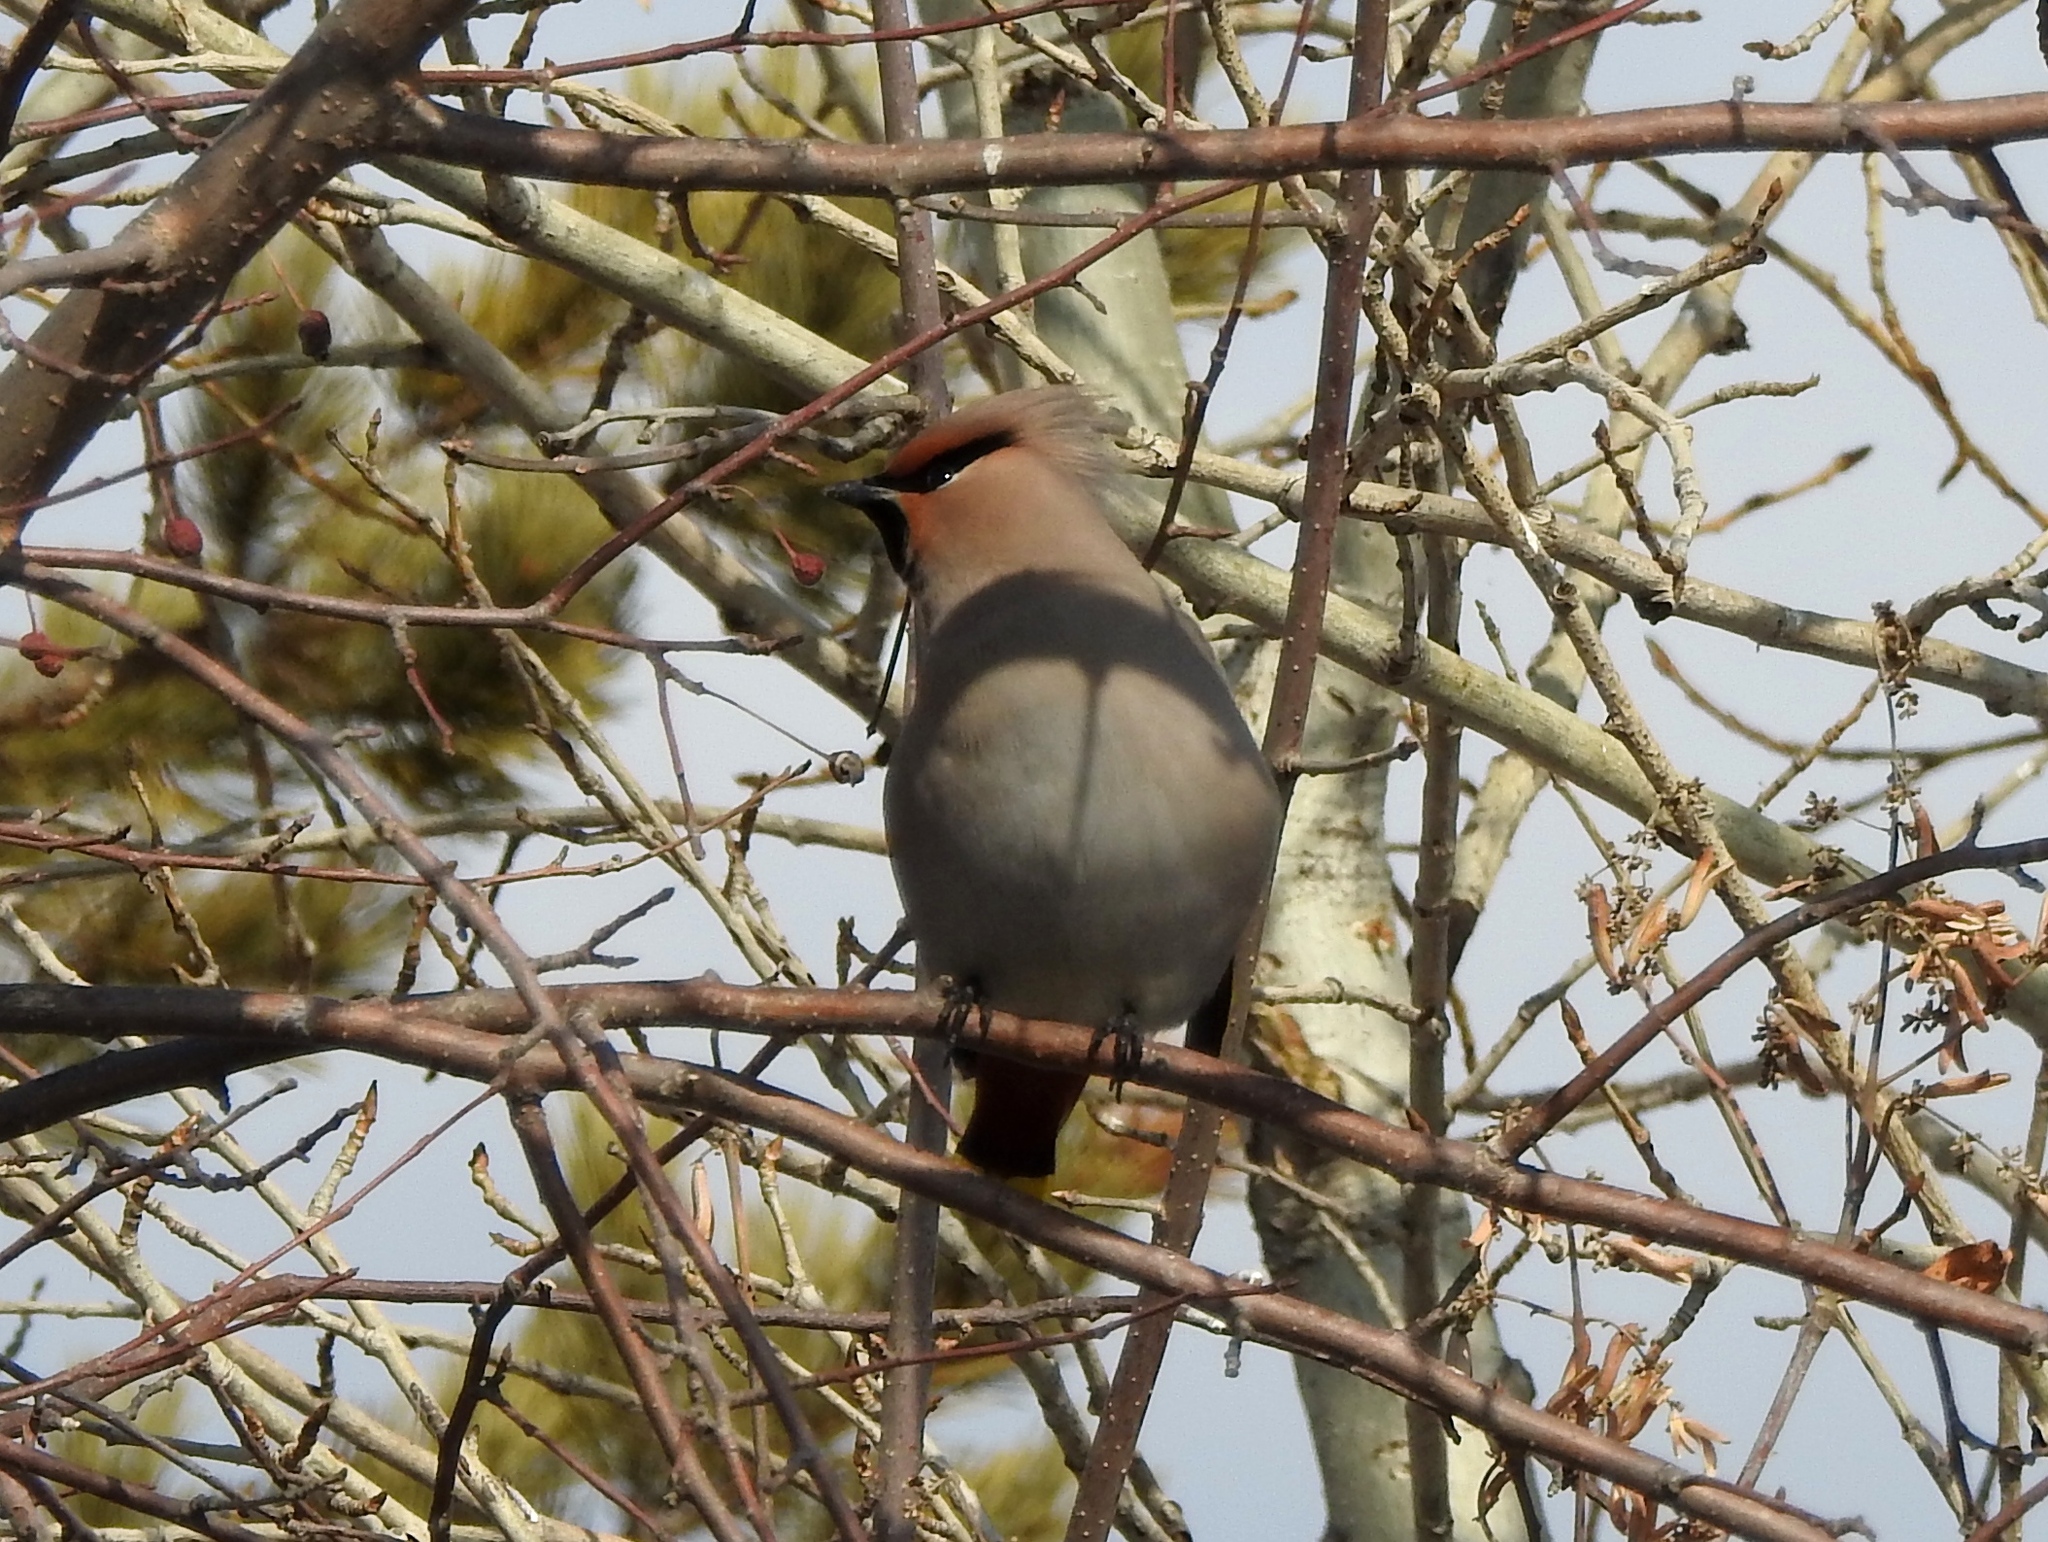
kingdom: Animalia
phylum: Chordata
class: Aves
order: Passeriformes
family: Bombycillidae
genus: Bombycilla
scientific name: Bombycilla garrulus
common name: Bohemian waxwing
